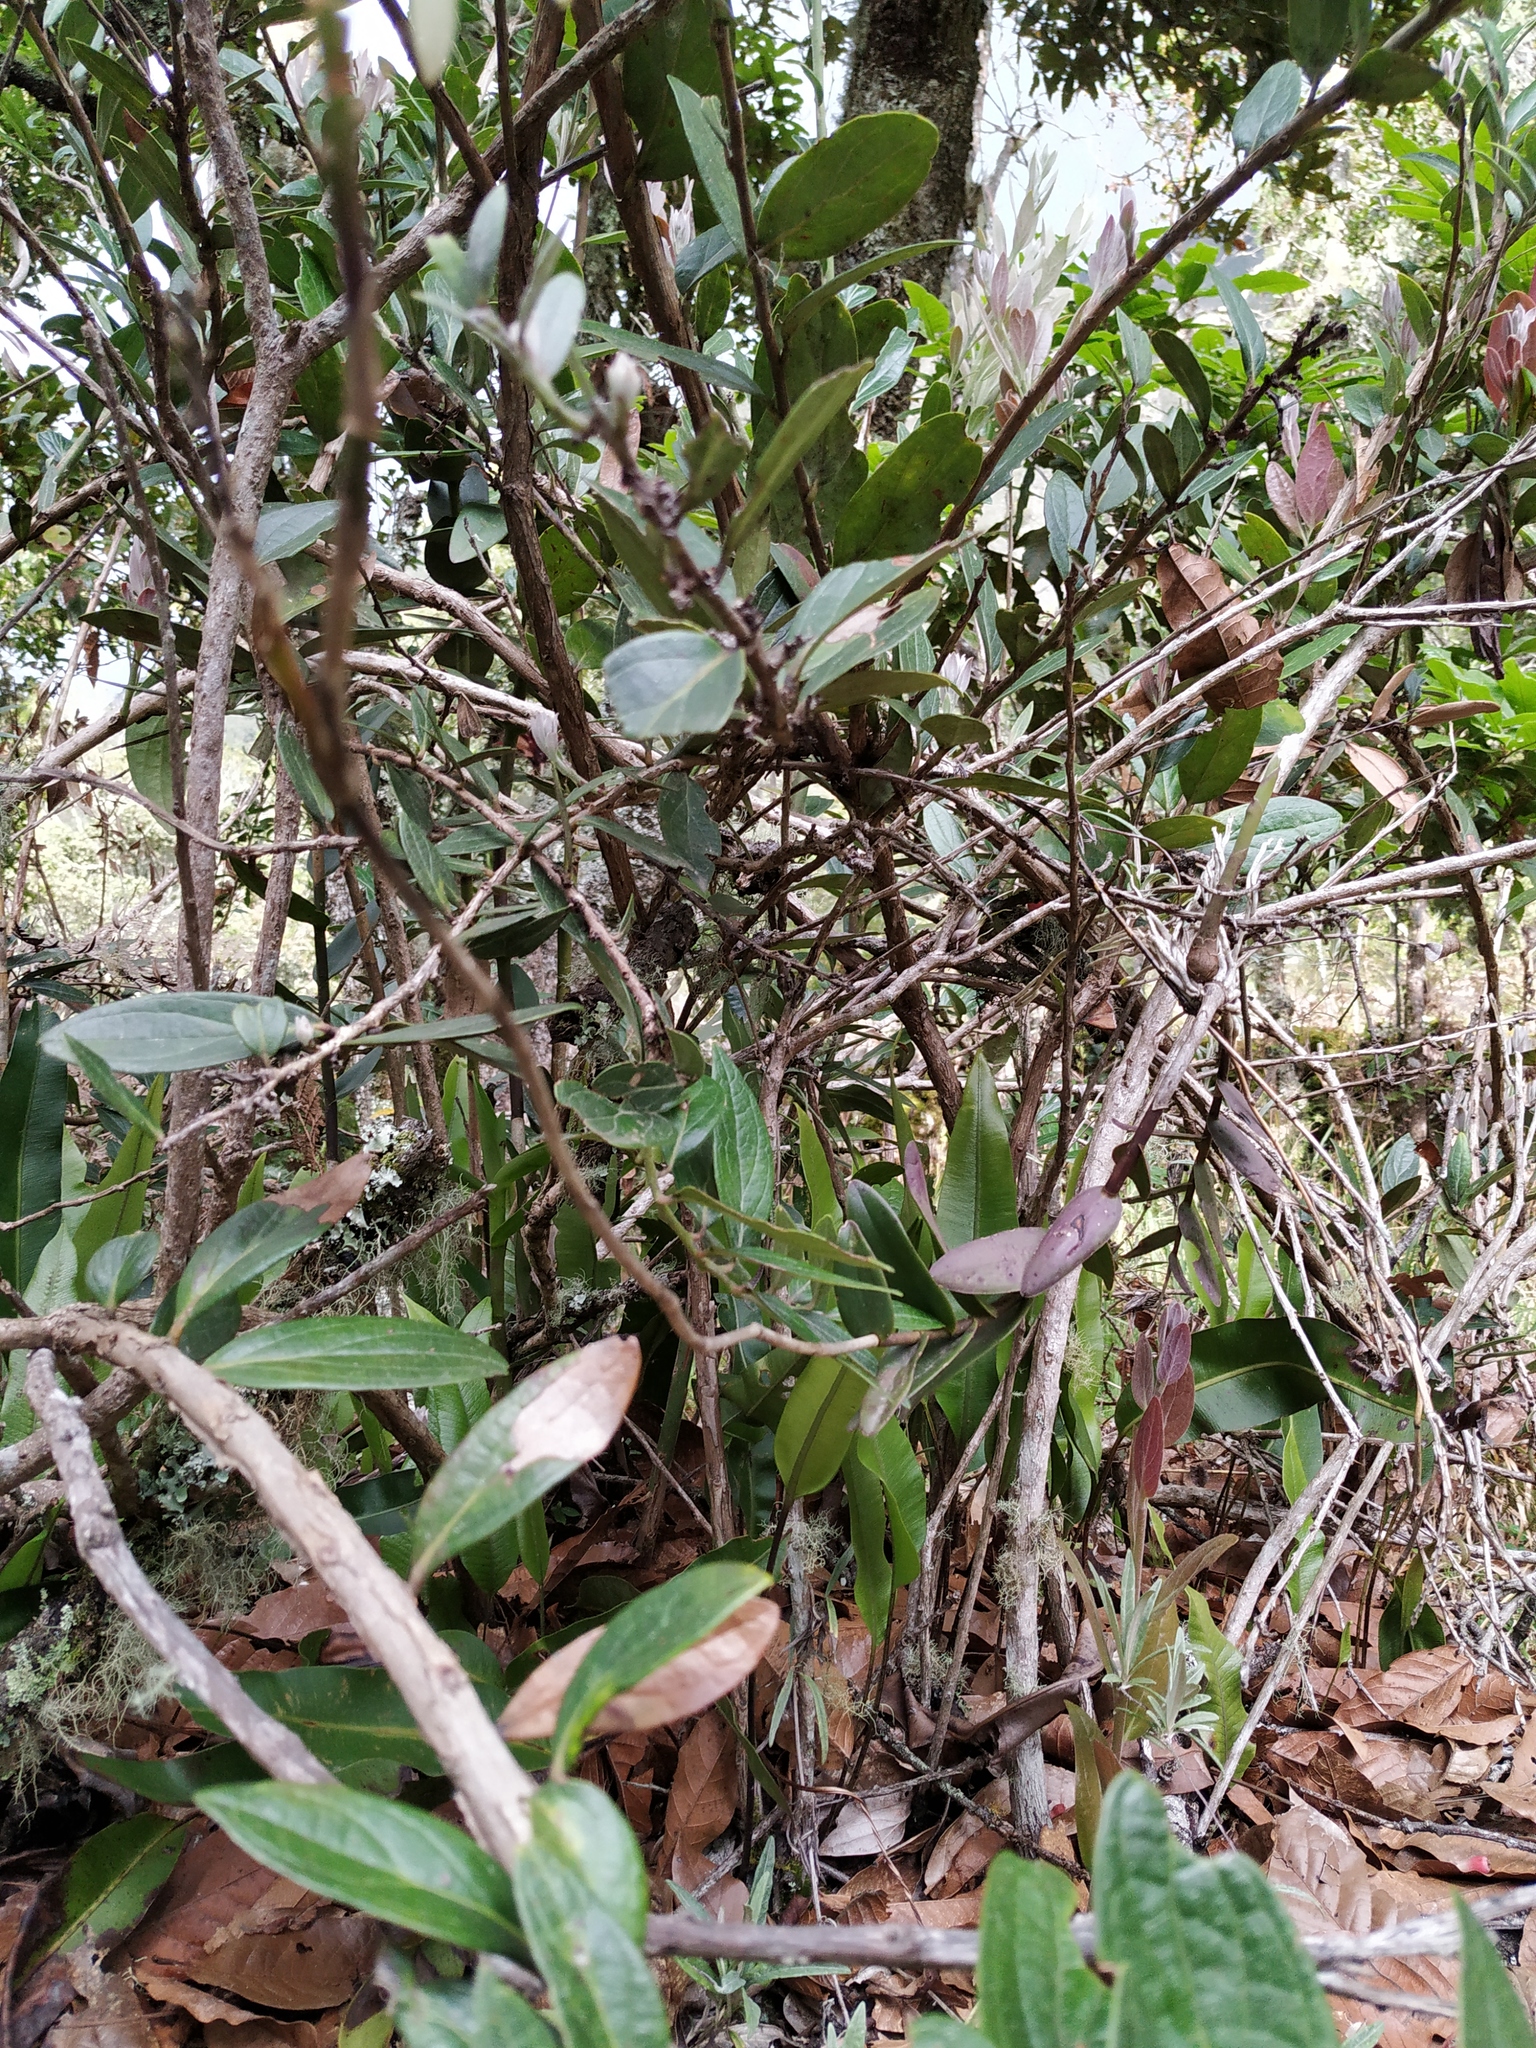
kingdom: Plantae
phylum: Tracheophyta
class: Liliopsida
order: Asparagales
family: Orchidaceae
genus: Epidendrum
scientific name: Epidendrum schistochilum
